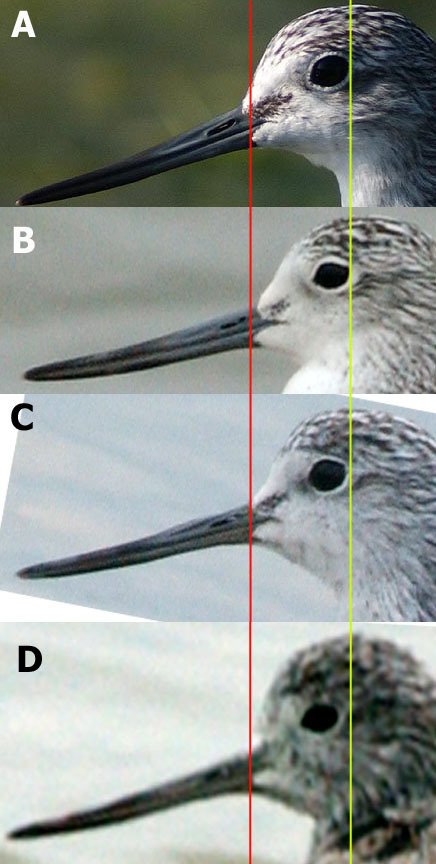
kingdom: Animalia
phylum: Chordata
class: Aves
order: Charadriiformes
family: Scolopacidae
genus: Tringa
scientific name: Tringa nebularia
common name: Common greenshank
